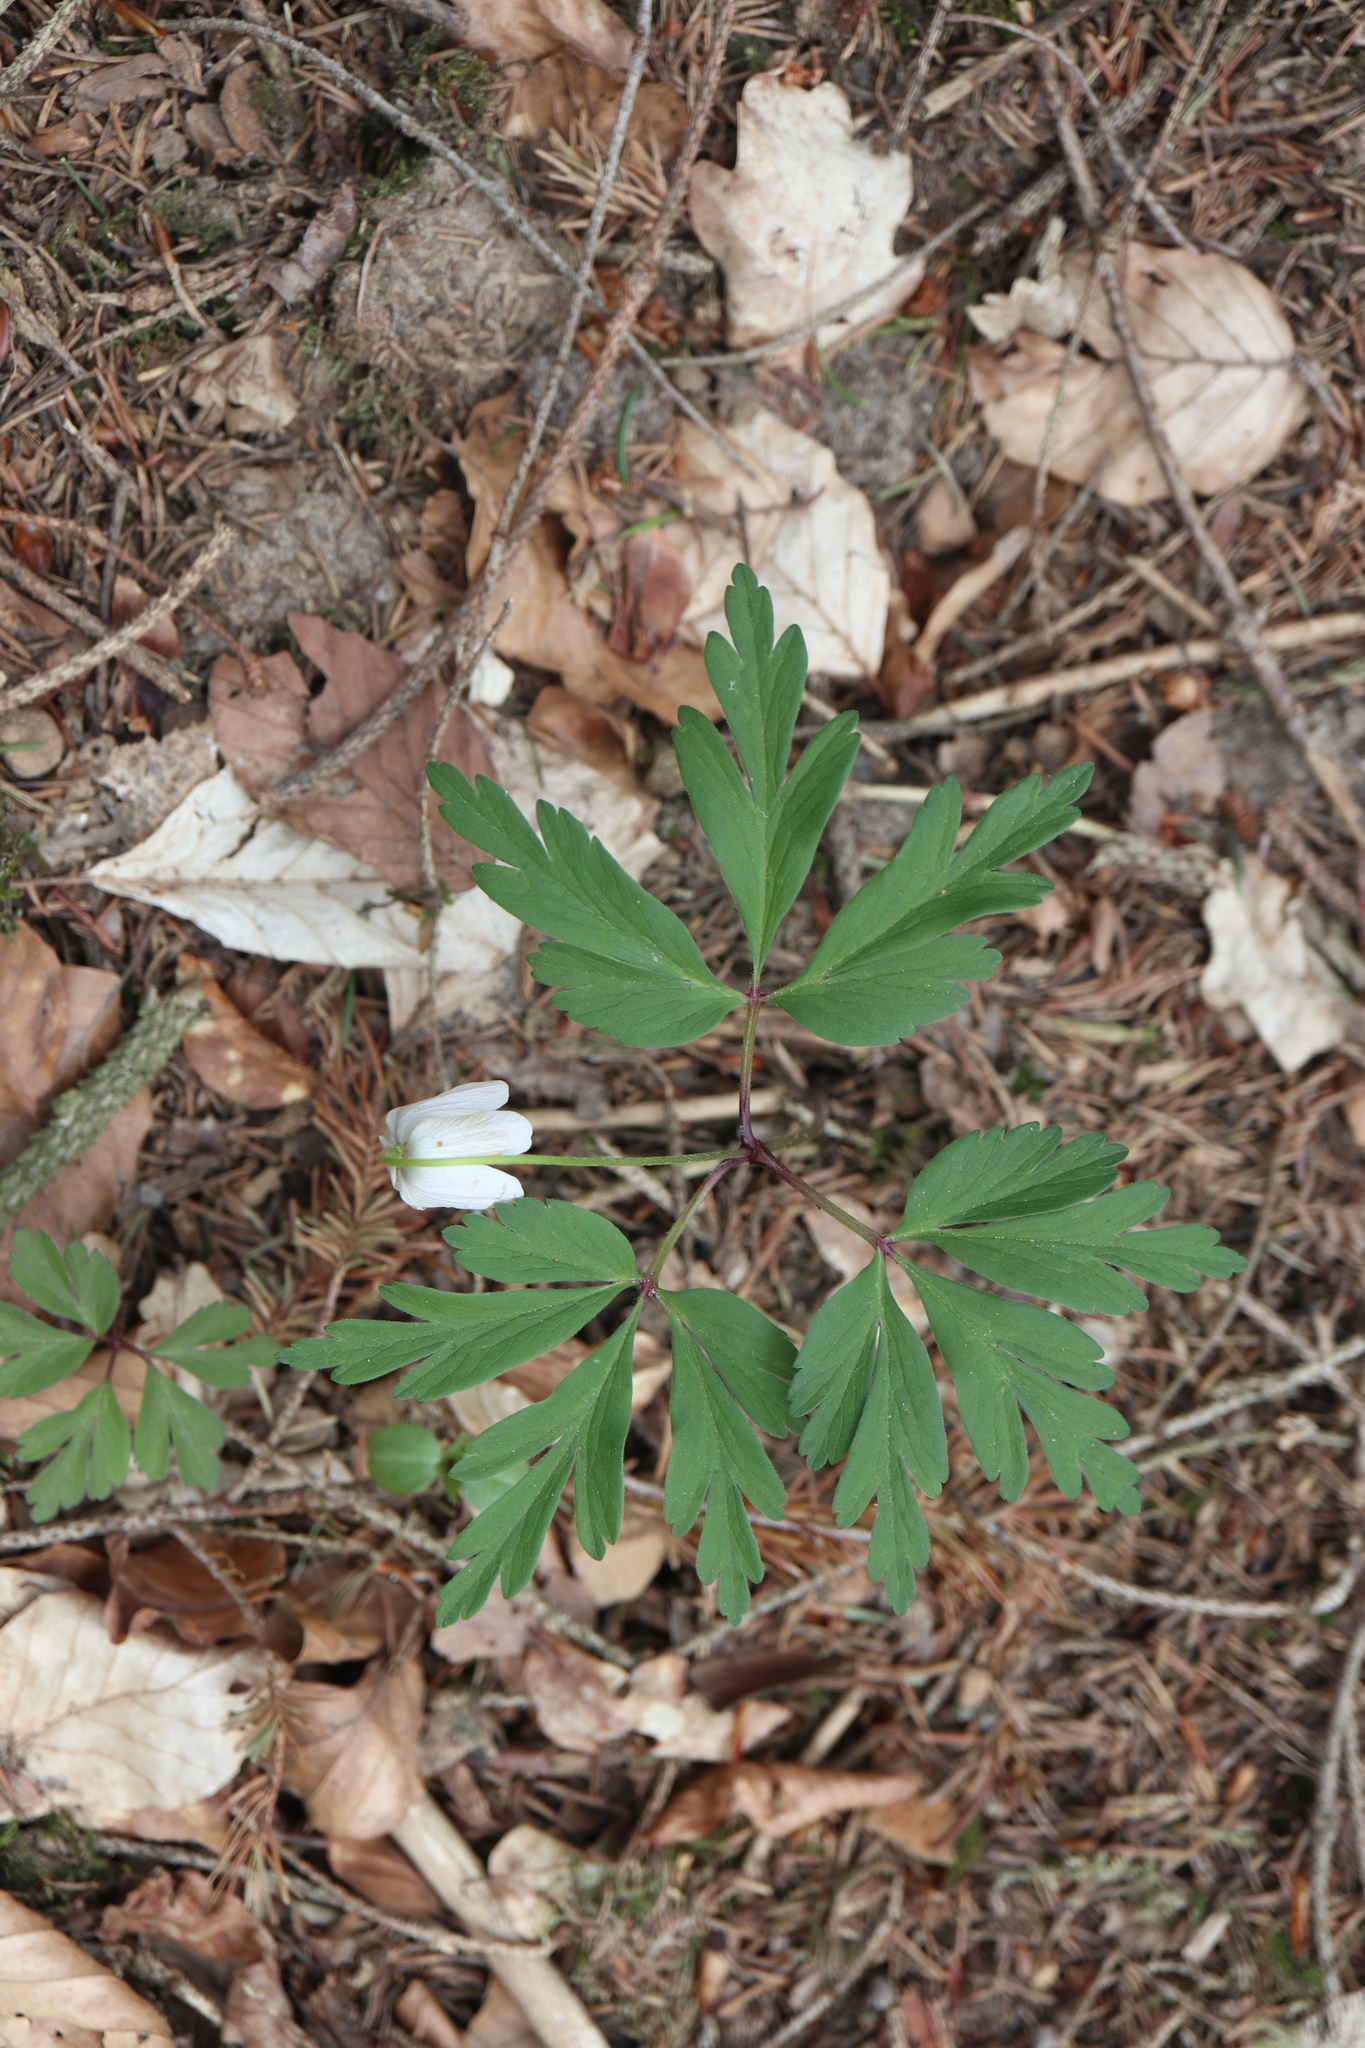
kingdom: Plantae
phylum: Tracheophyta
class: Magnoliopsida
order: Ranunculales
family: Ranunculaceae
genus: Anemone
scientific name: Anemone nemorosa
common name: Wood anemone
